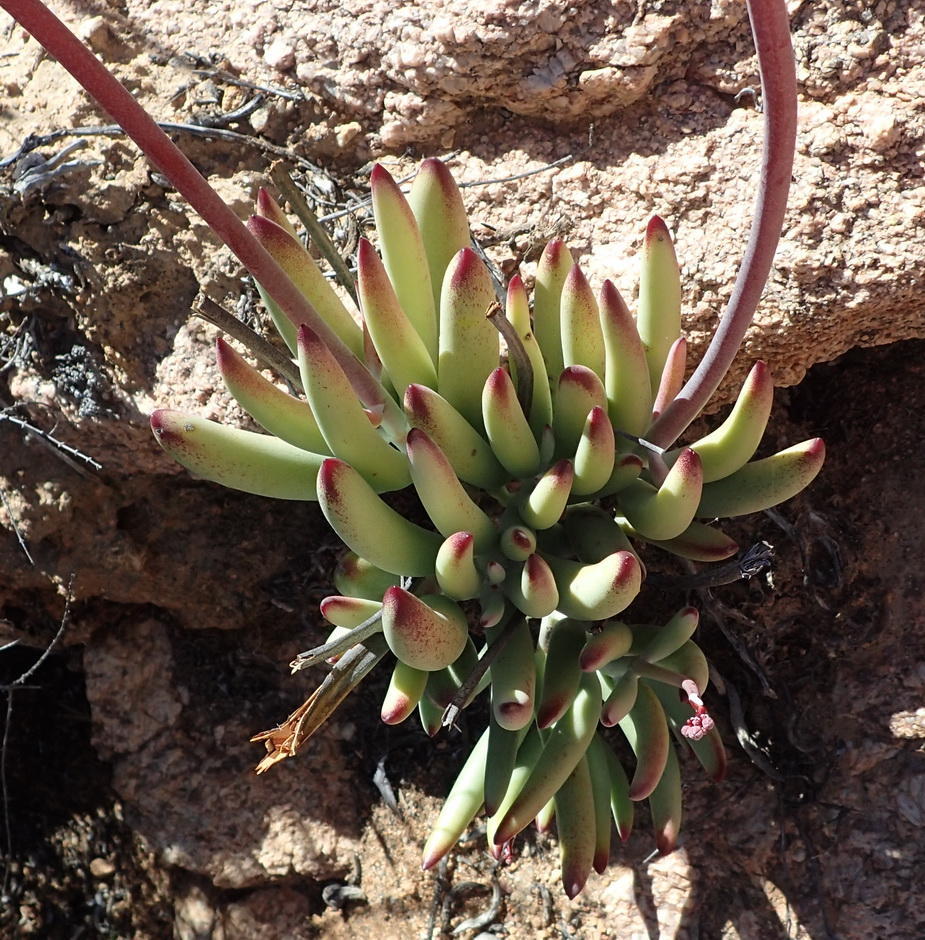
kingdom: Plantae
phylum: Tracheophyta
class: Magnoliopsida
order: Saxifragales
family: Crassulaceae
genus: Cotyledon
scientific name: Cotyledon orbiculata
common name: Pig's ear
